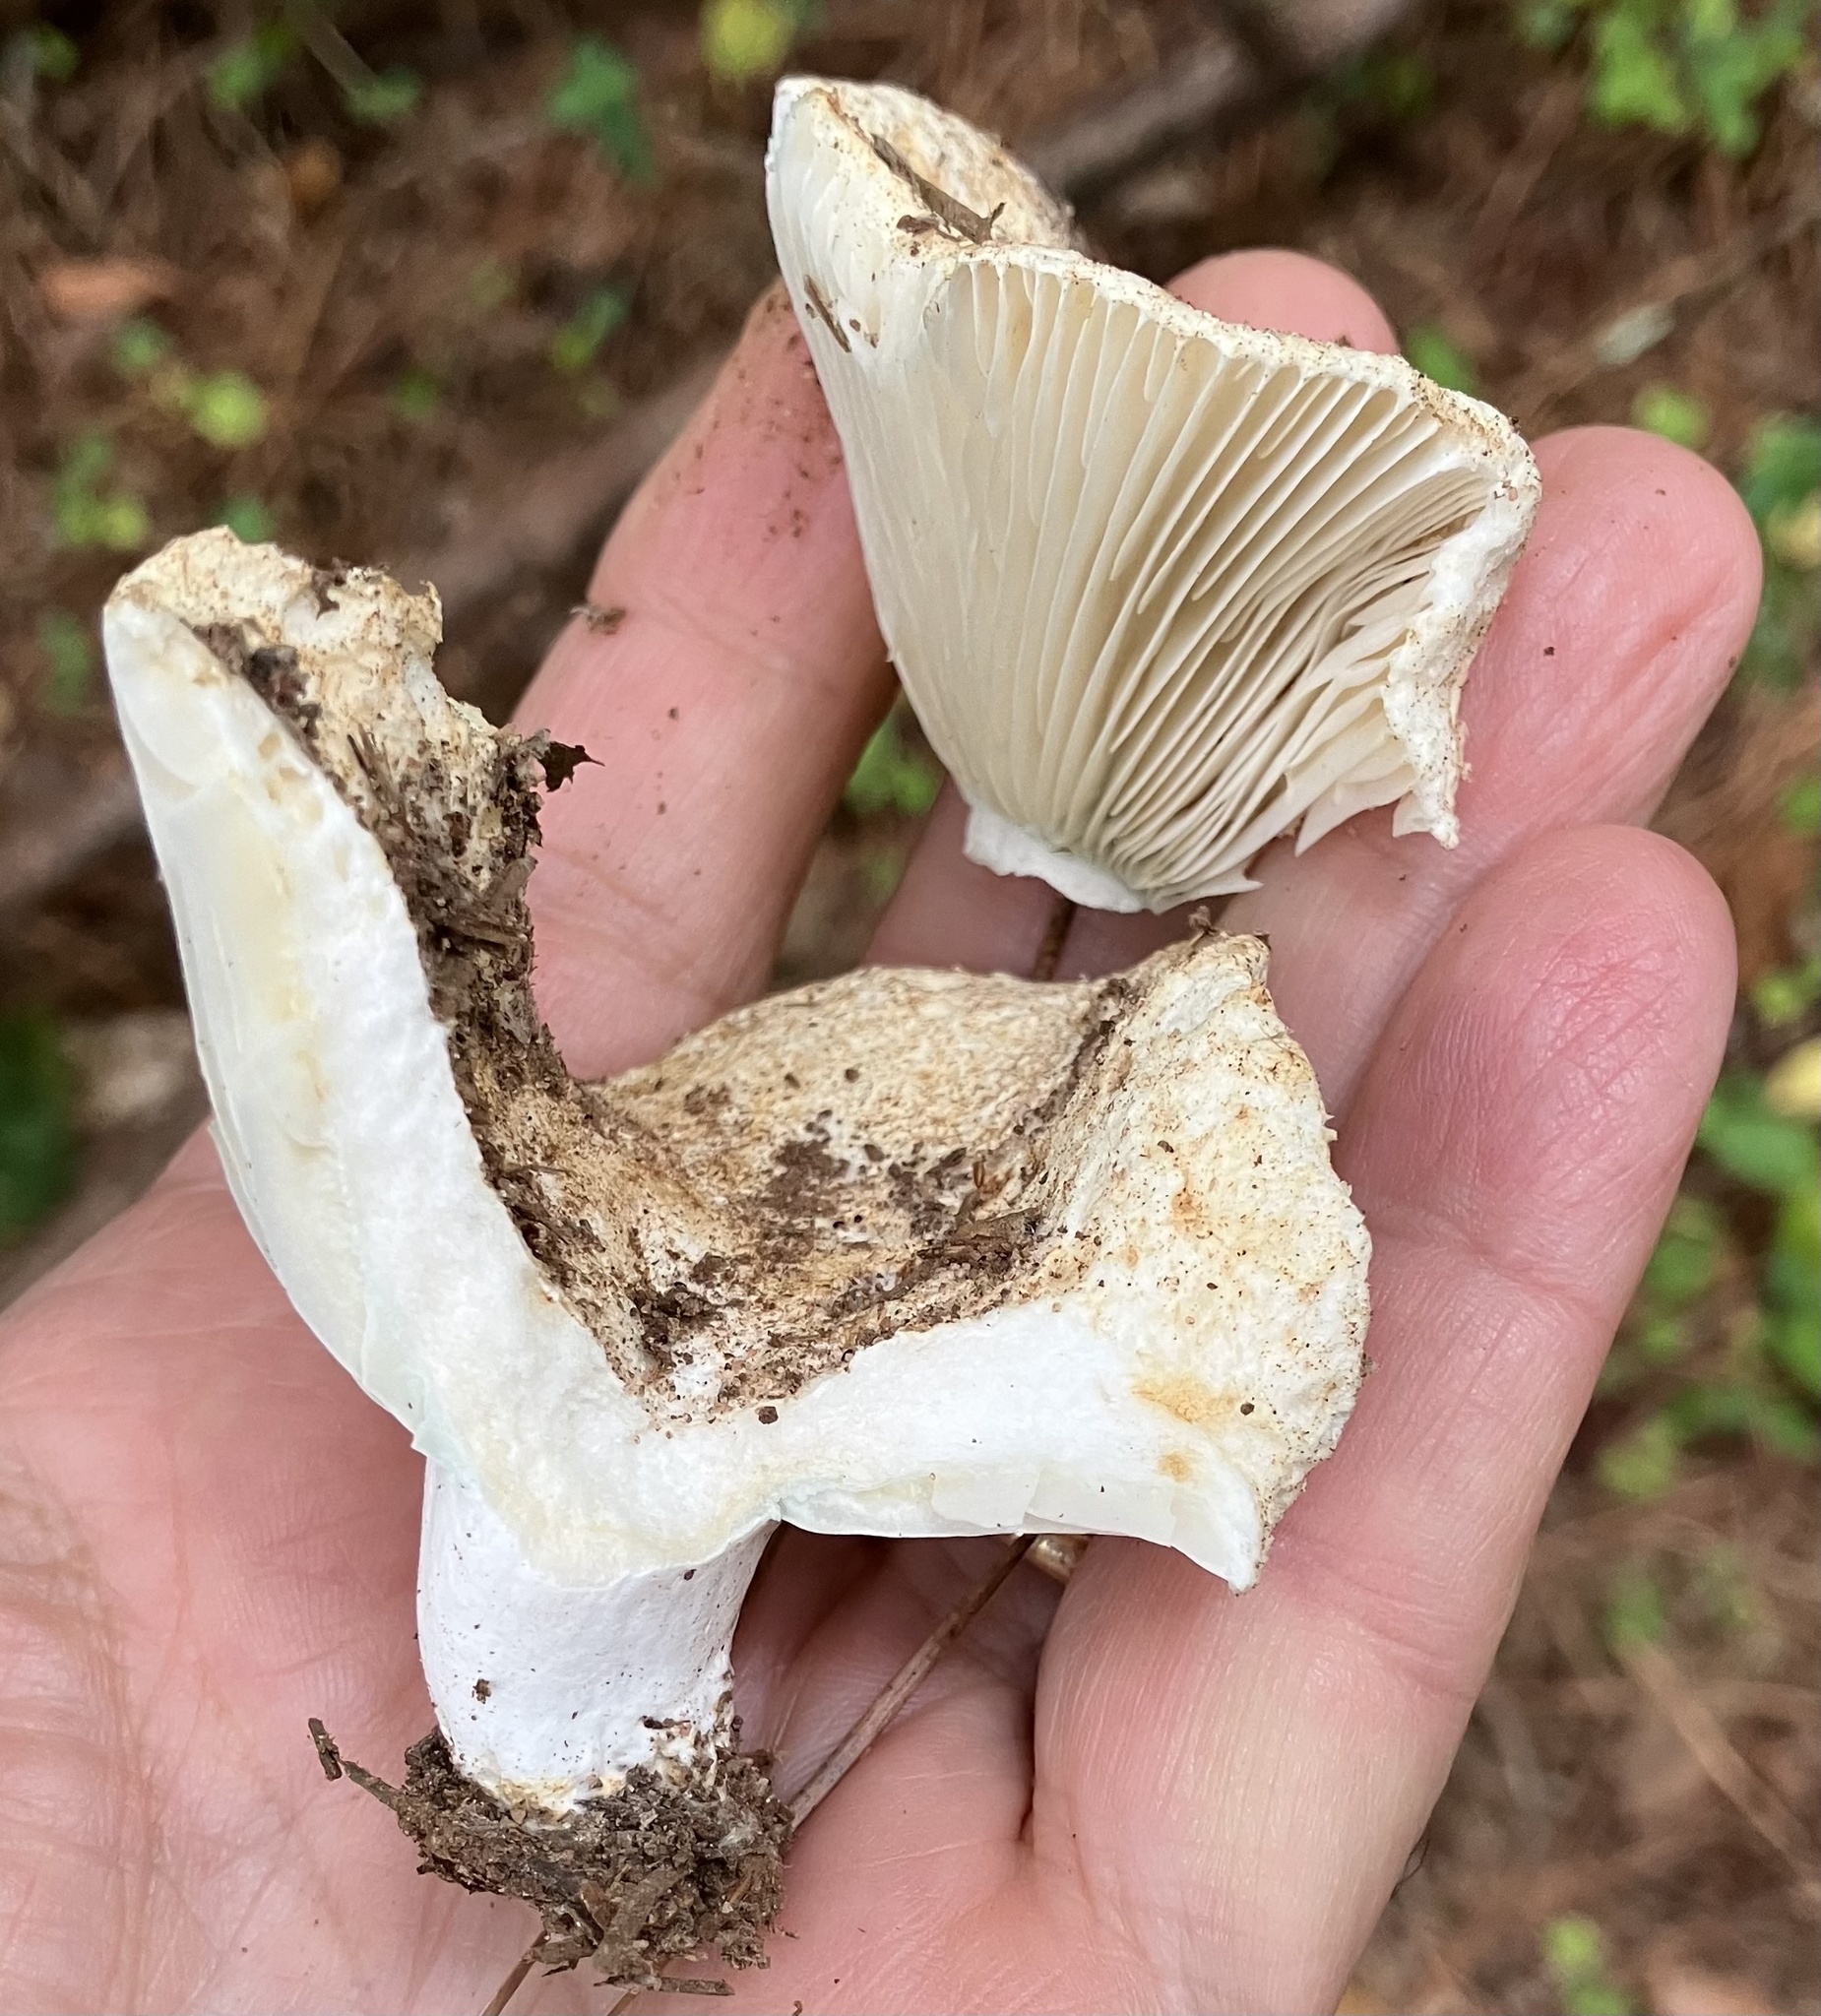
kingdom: Fungi
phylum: Basidiomycota
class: Agaricomycetes
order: Russulales
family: Russulaceae
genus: Russula
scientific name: Russula brevipes
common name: Short-stemmed russula
